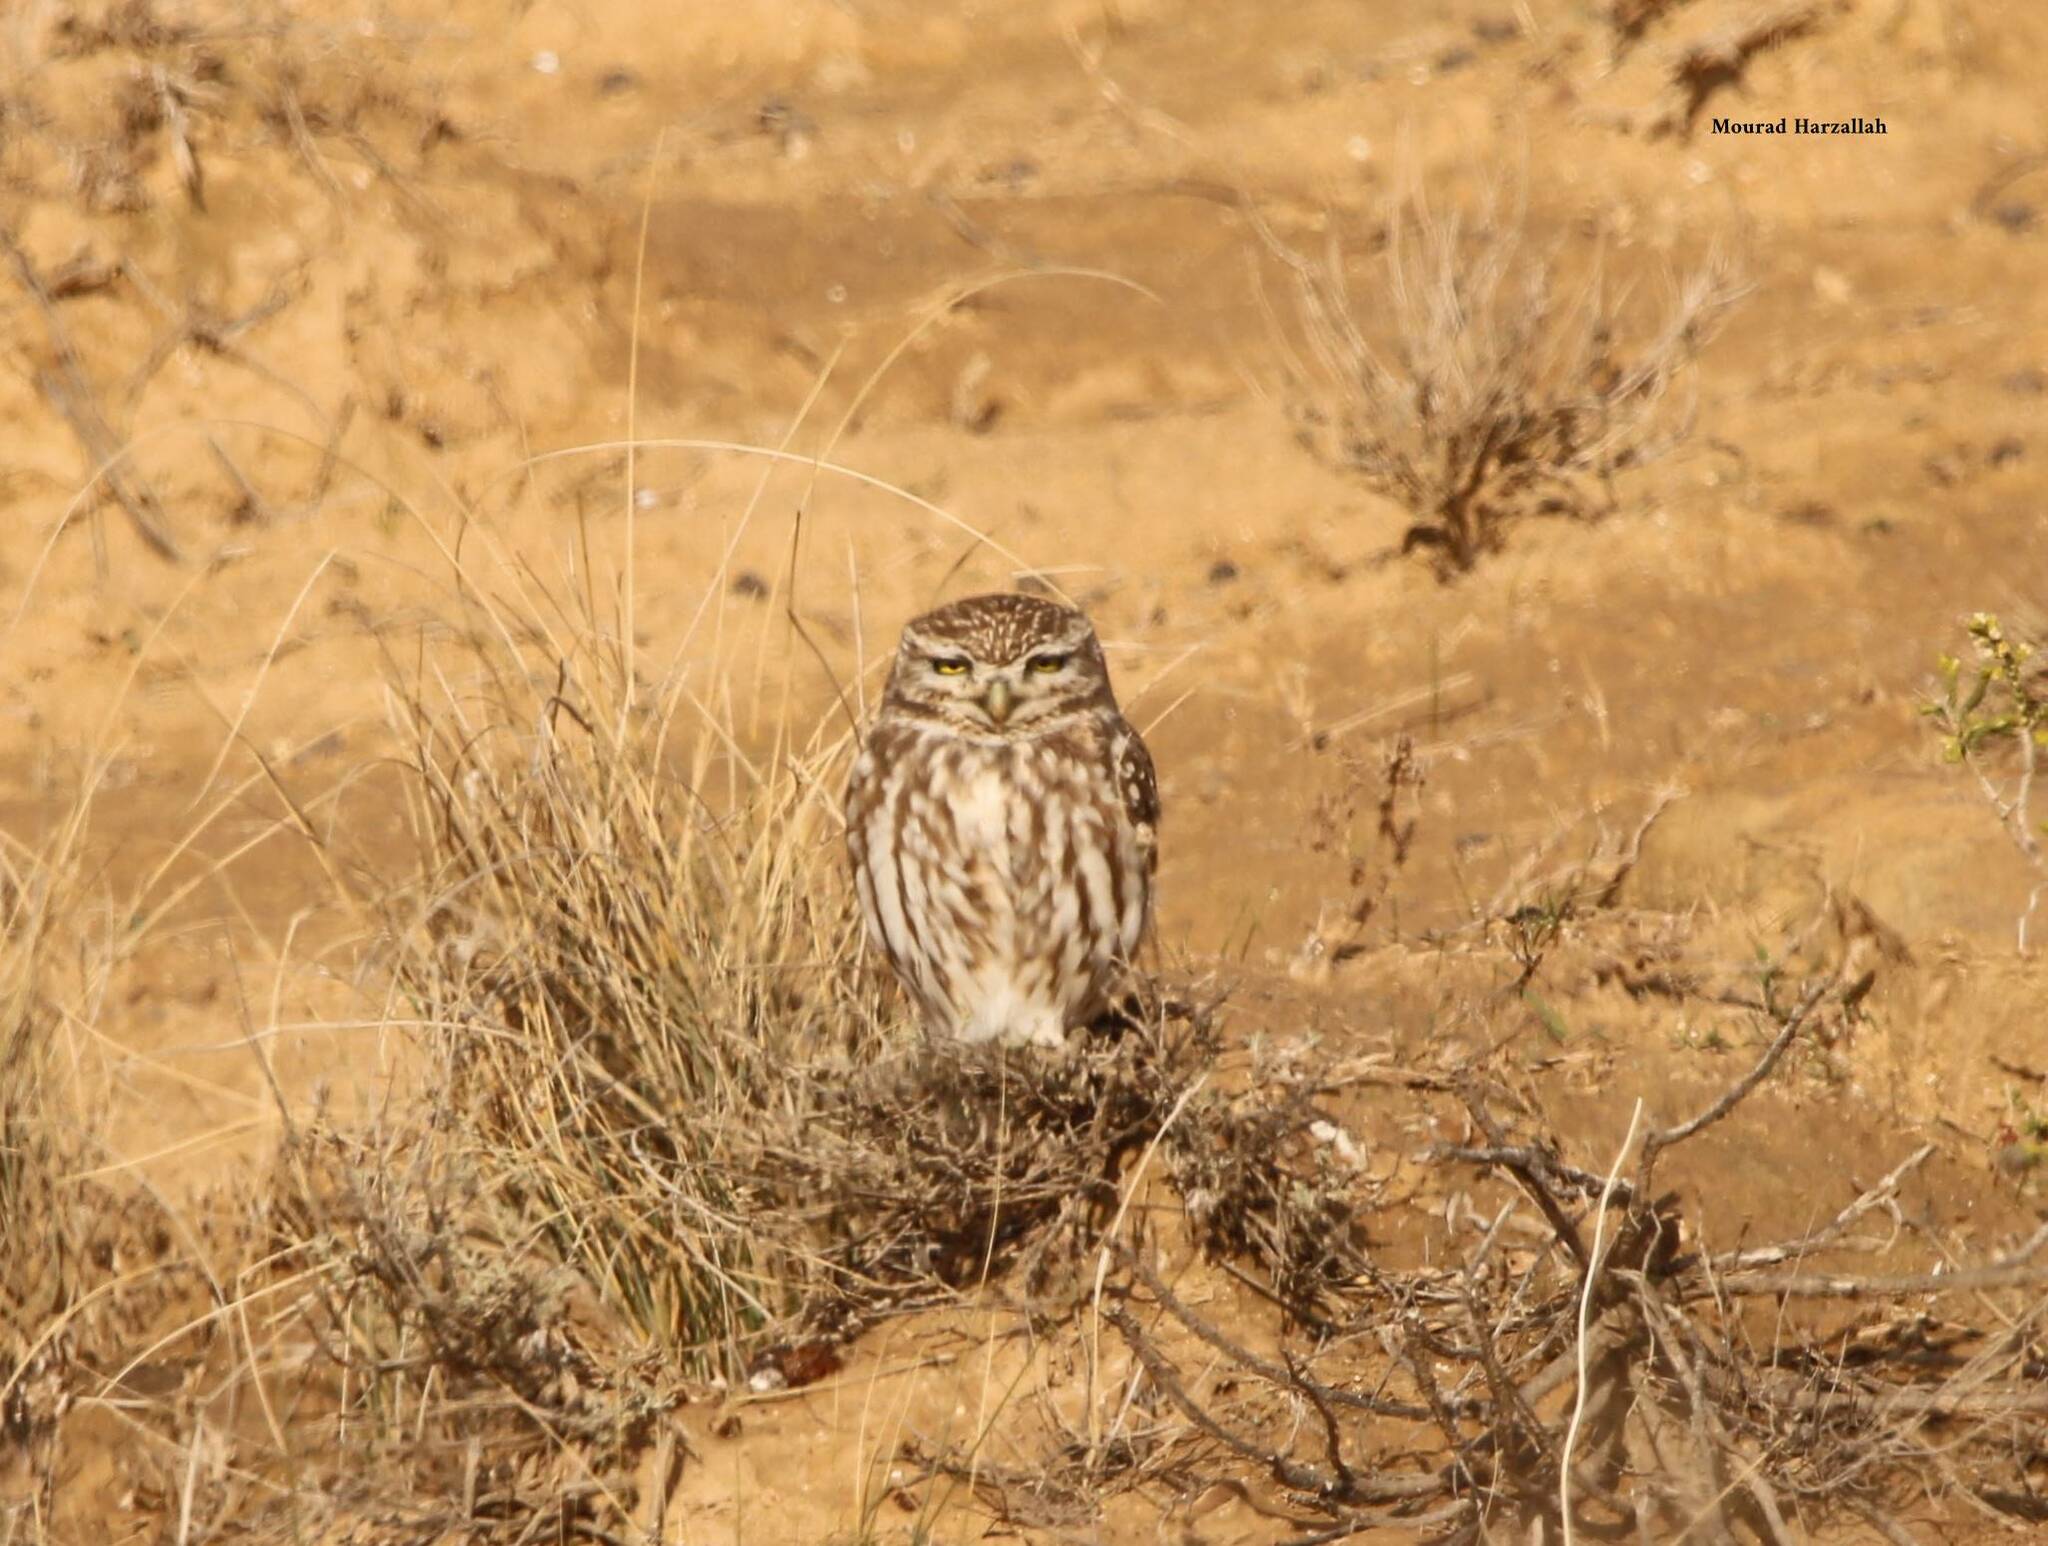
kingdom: Animalia
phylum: Chordata
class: Aves
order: Strigiformes
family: Strigidae
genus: Athene
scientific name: Athene noctua
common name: Little owl
